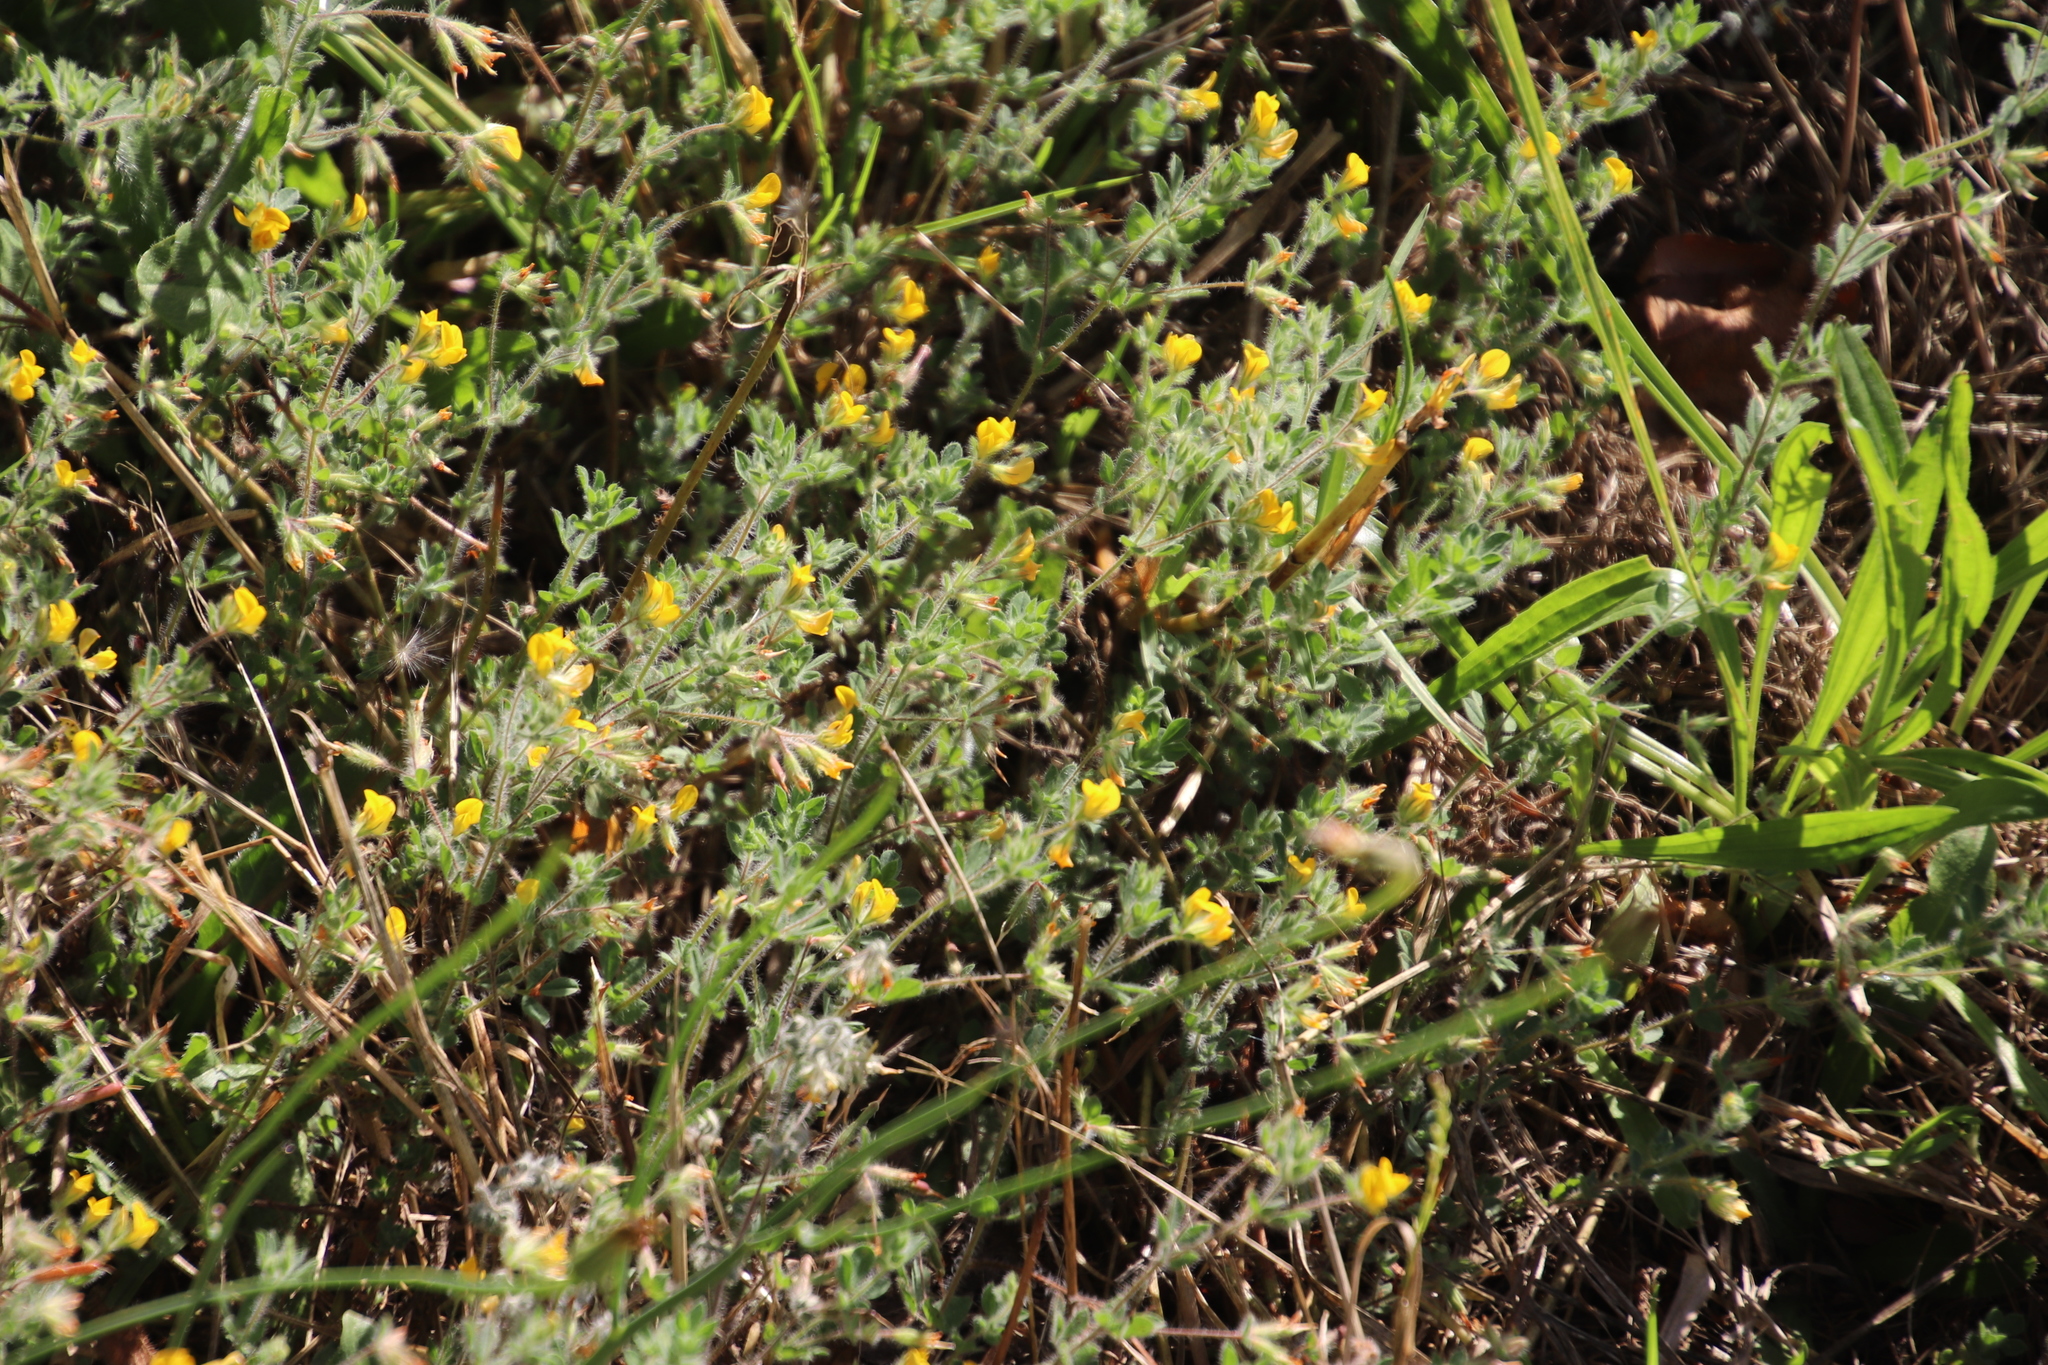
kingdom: Plantae
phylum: Tracheophyta
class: Magnoliopsida
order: Fabales
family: Fabaceae
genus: Lotus
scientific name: Lotus subbiflorus
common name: Hairy bird's-foot trefoil
